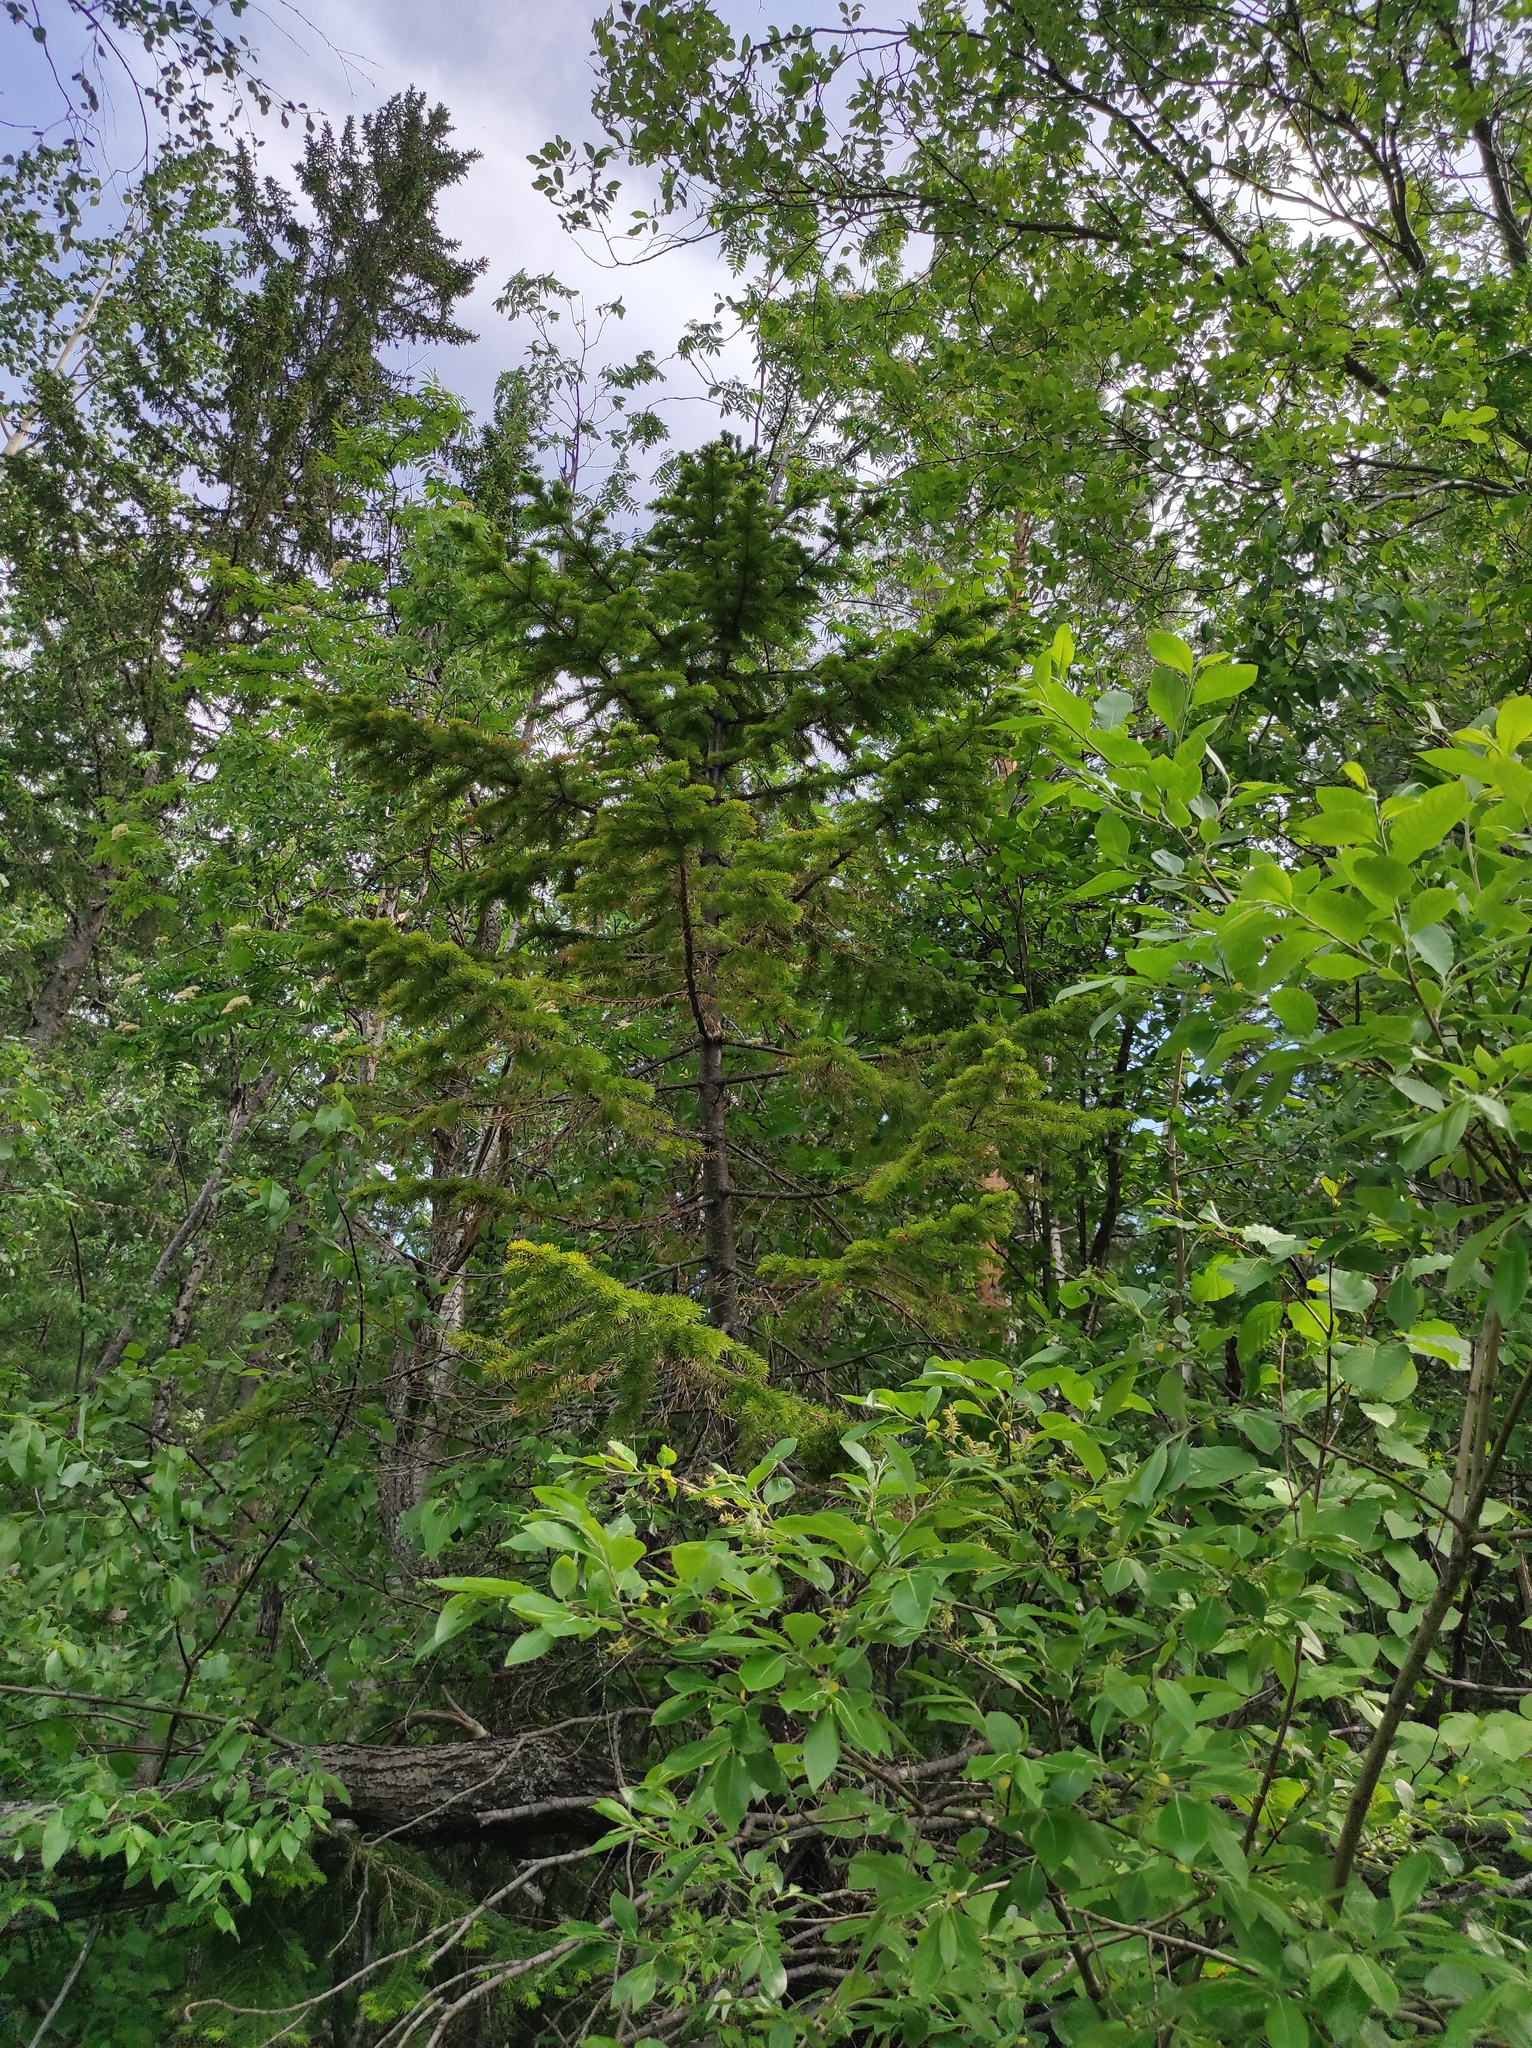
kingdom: Plantae
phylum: Tracheophyta
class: Pinopsida
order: Pinales
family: Pinaceae
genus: Abies
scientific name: Abies sibirica
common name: Siberian fir
